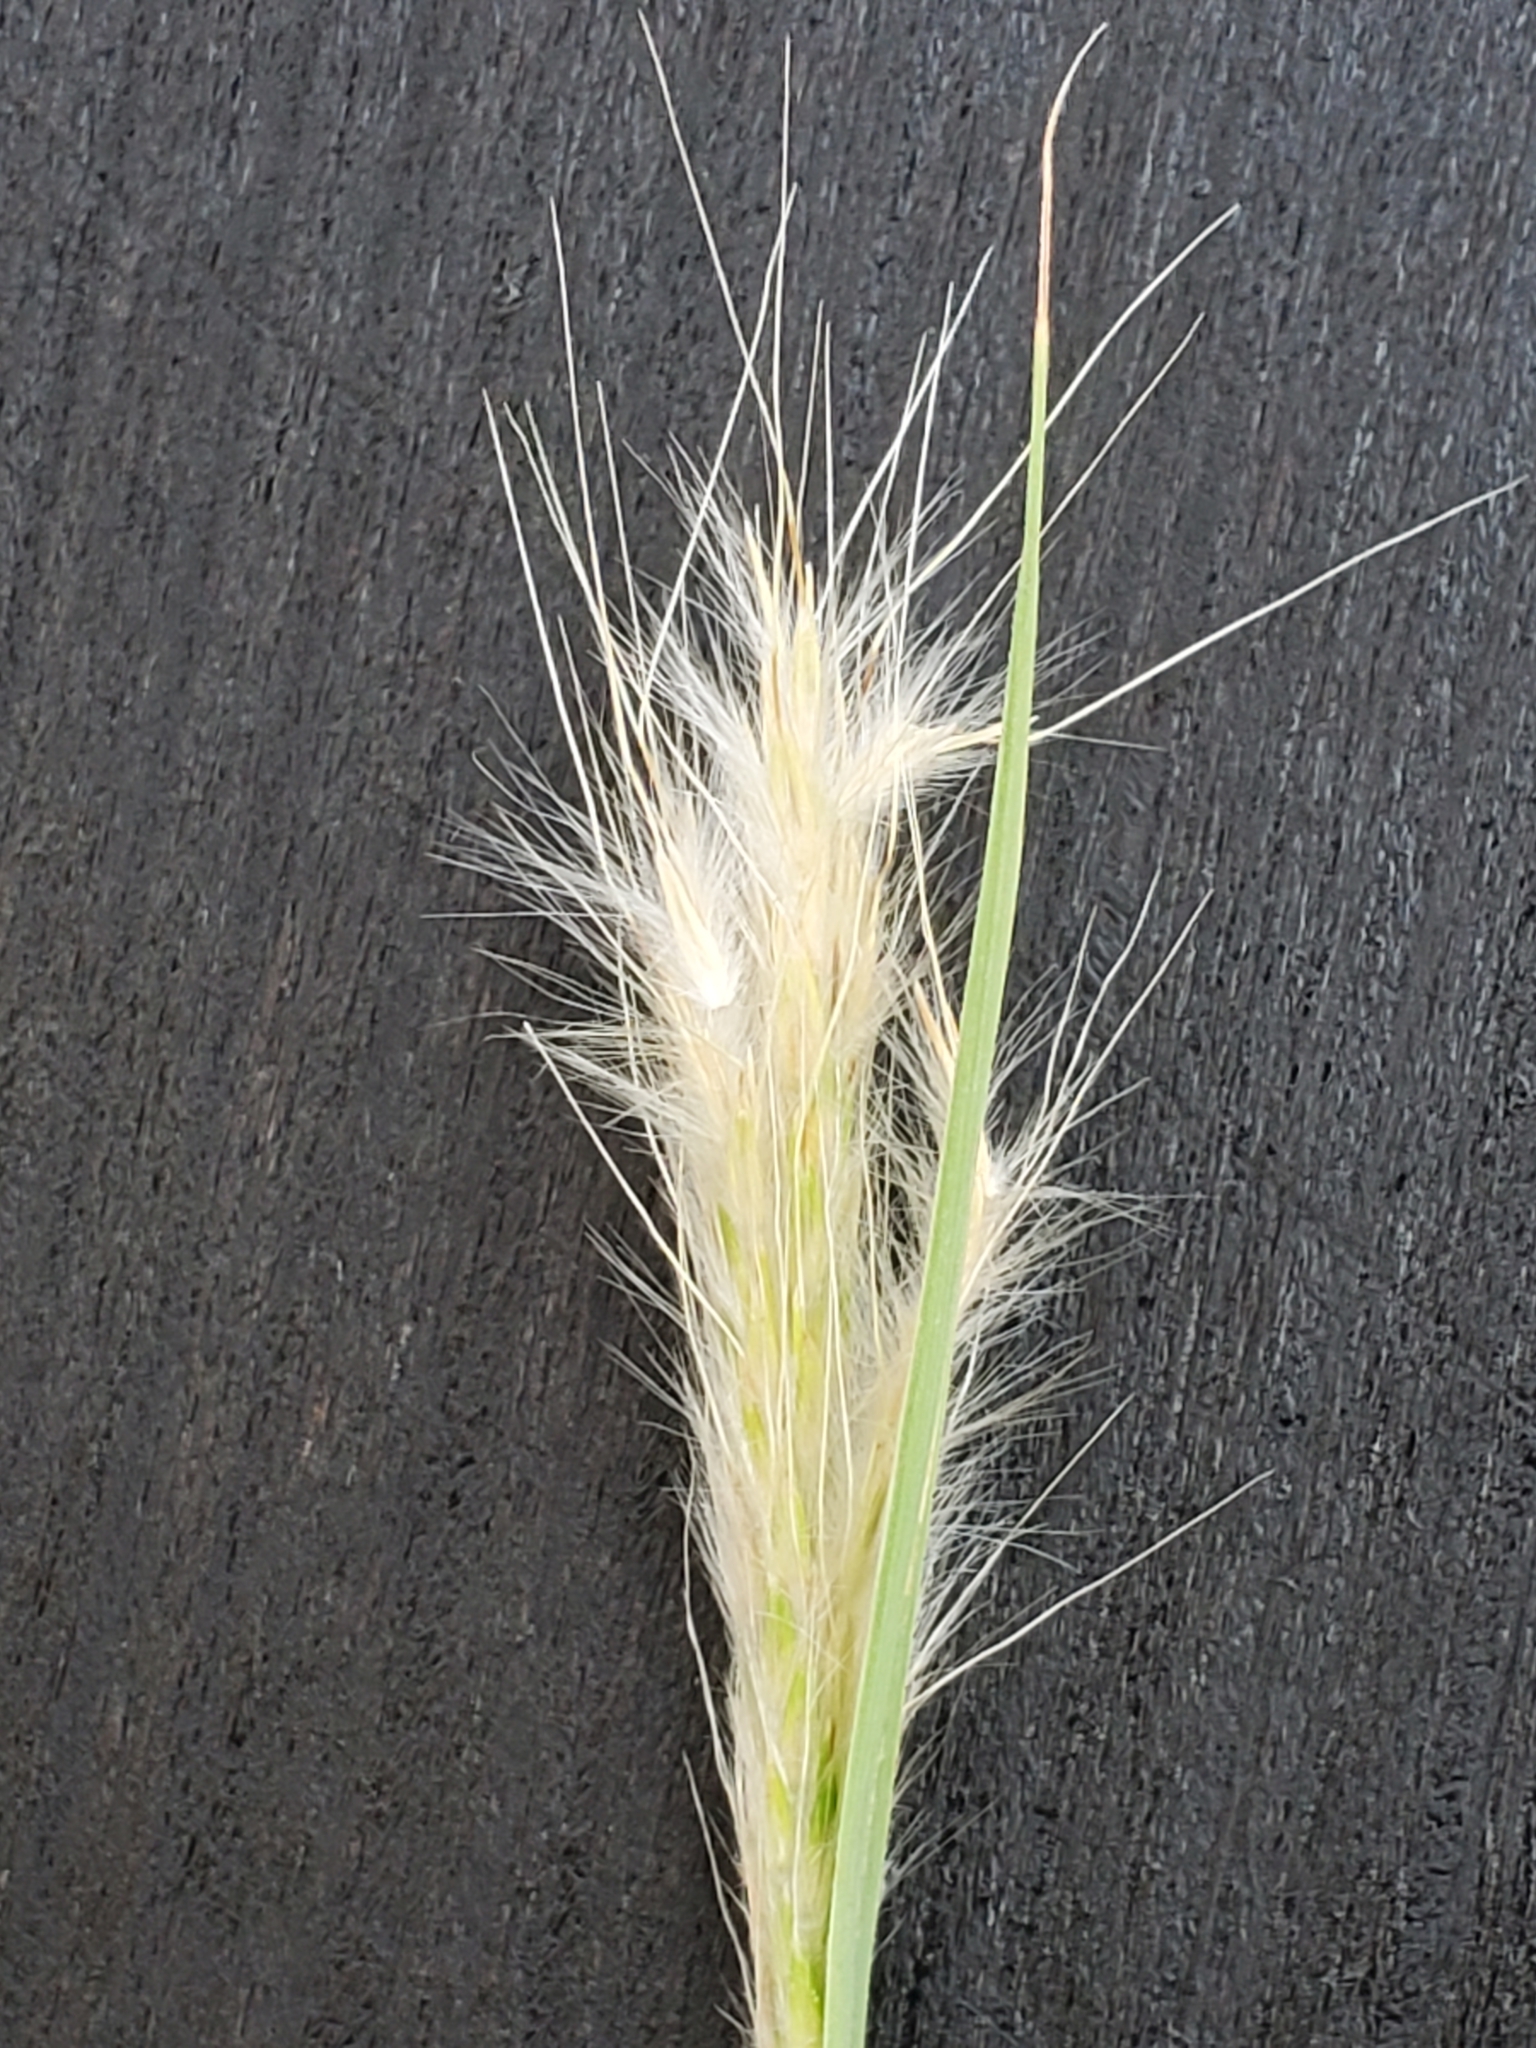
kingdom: Plantae
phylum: Tracheophyta
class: Liliopsida
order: Poales
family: Poaceae
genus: Bothriochloa
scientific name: Bothriochloa barbinodis
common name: Cane bluestem
